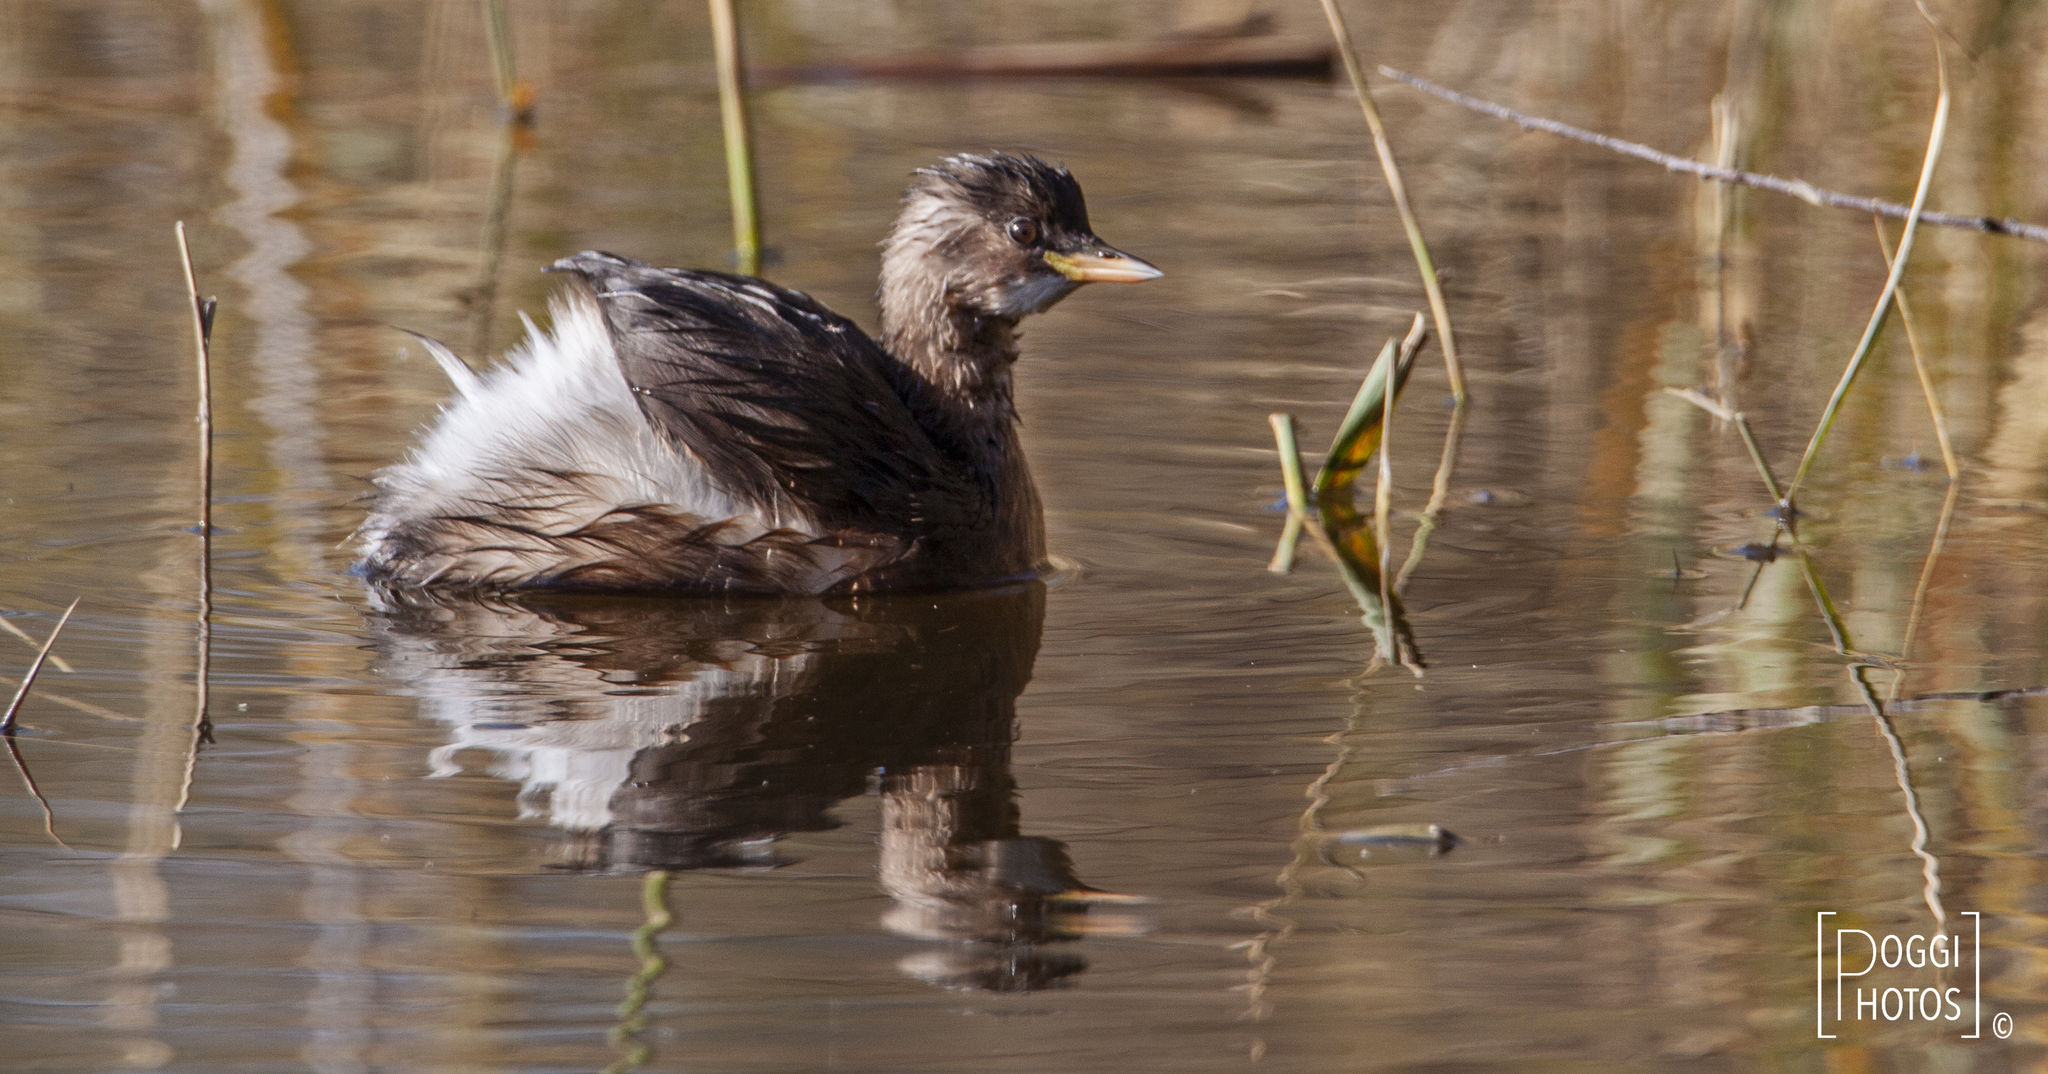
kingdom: Animalia
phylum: Chordata
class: Aves
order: Podicipediformes
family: Podicipedidae
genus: Tachybaptus
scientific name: Tachybaptus ruficollis
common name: Little grebe
